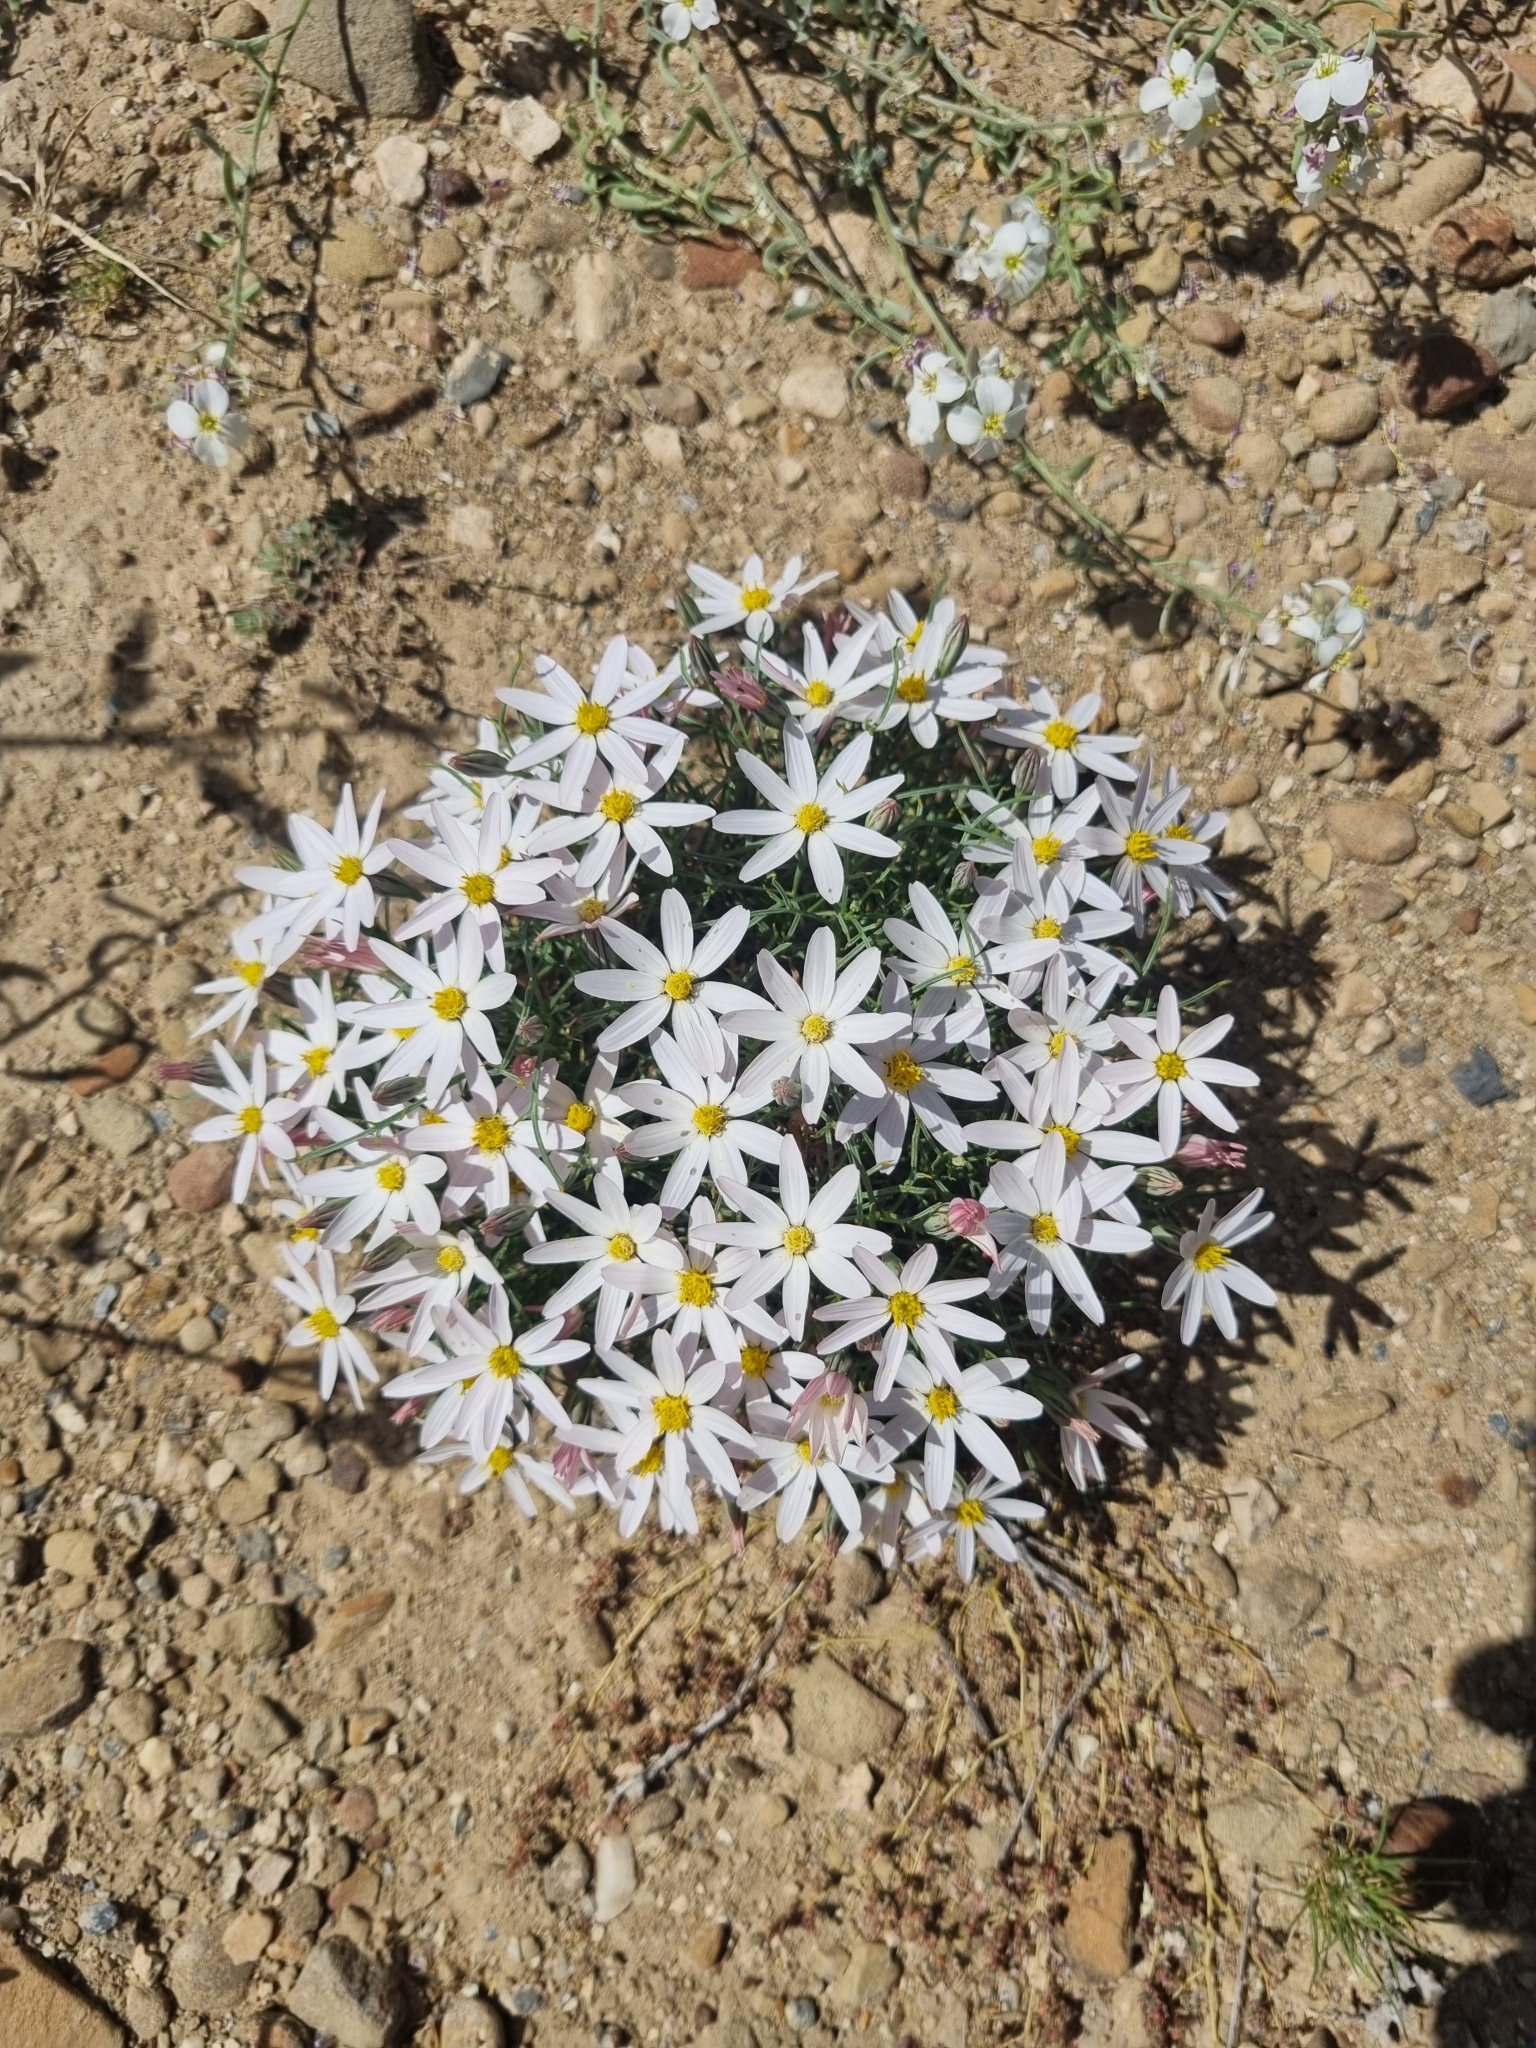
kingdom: Plantae
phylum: Tracheophyta
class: Magnoliopsida
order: Asterales
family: Asteraceae
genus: Nicolletia
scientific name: Nicolletia edwardsii
